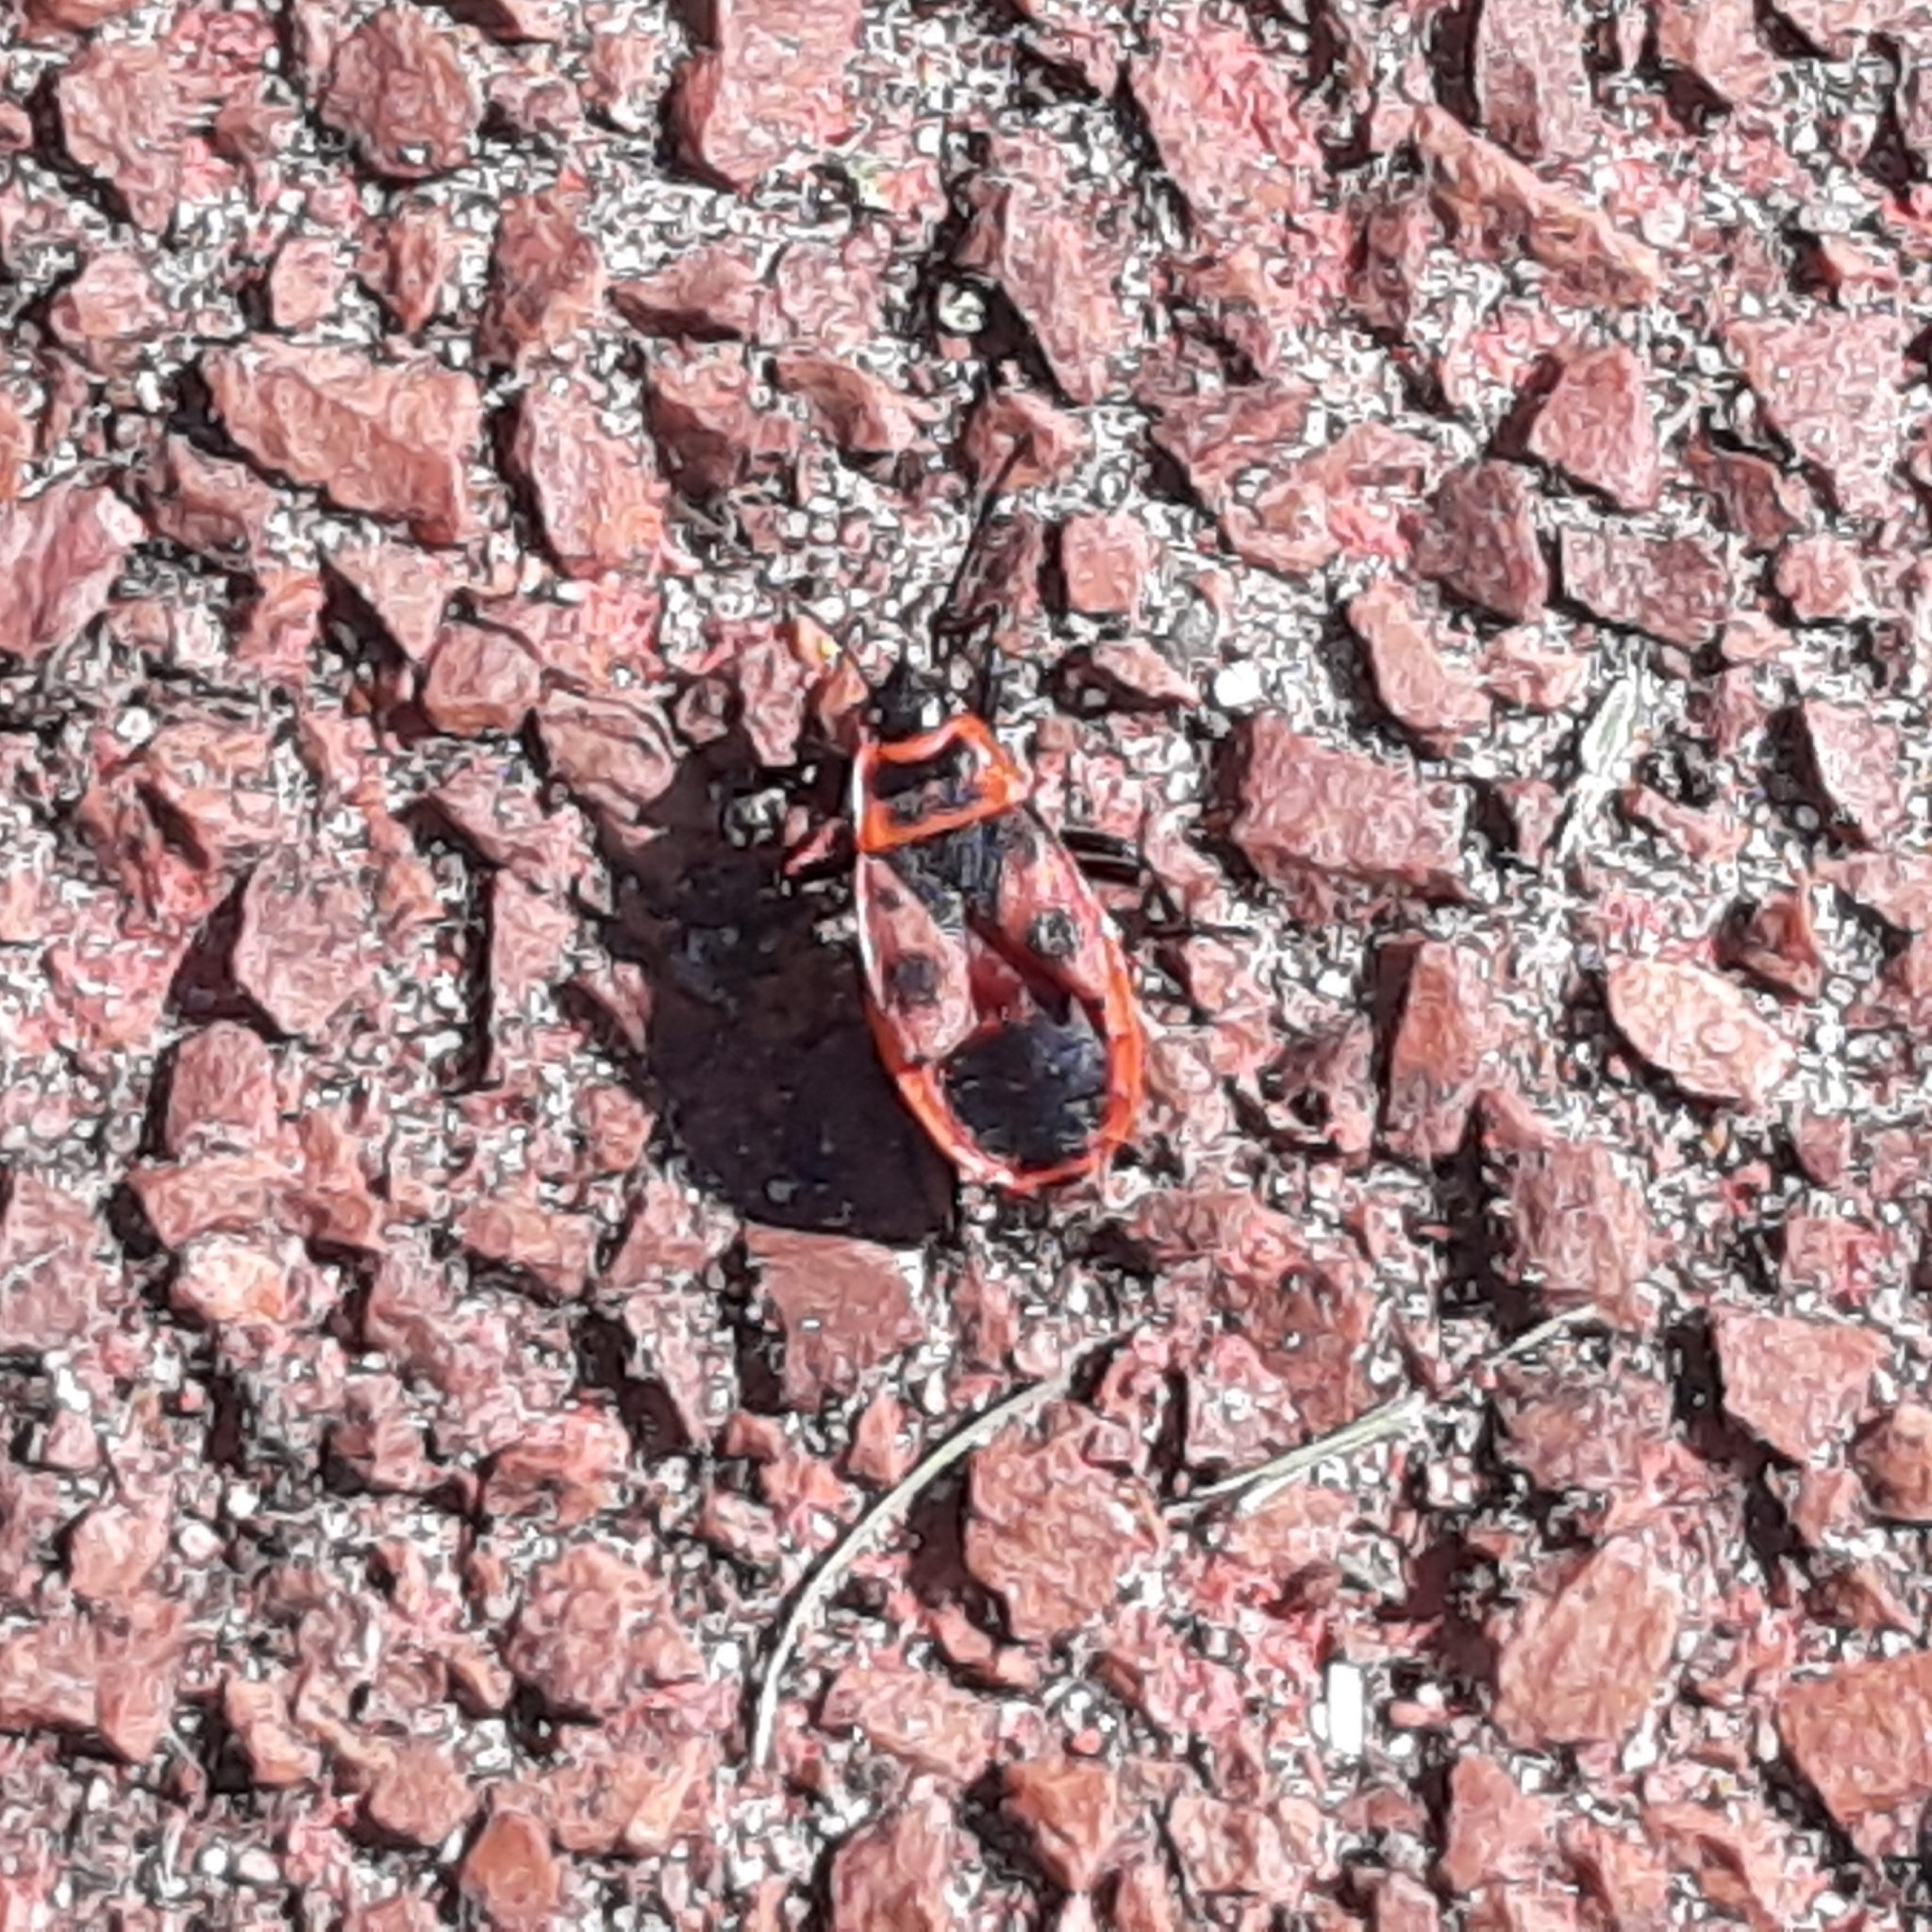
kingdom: Animalia
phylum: Arthropoda
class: Insecta
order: Hemiptera
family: Pyrrhocoridae
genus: Pyrrhocoris
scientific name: Pyrrhocoris apterus
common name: Firebug
